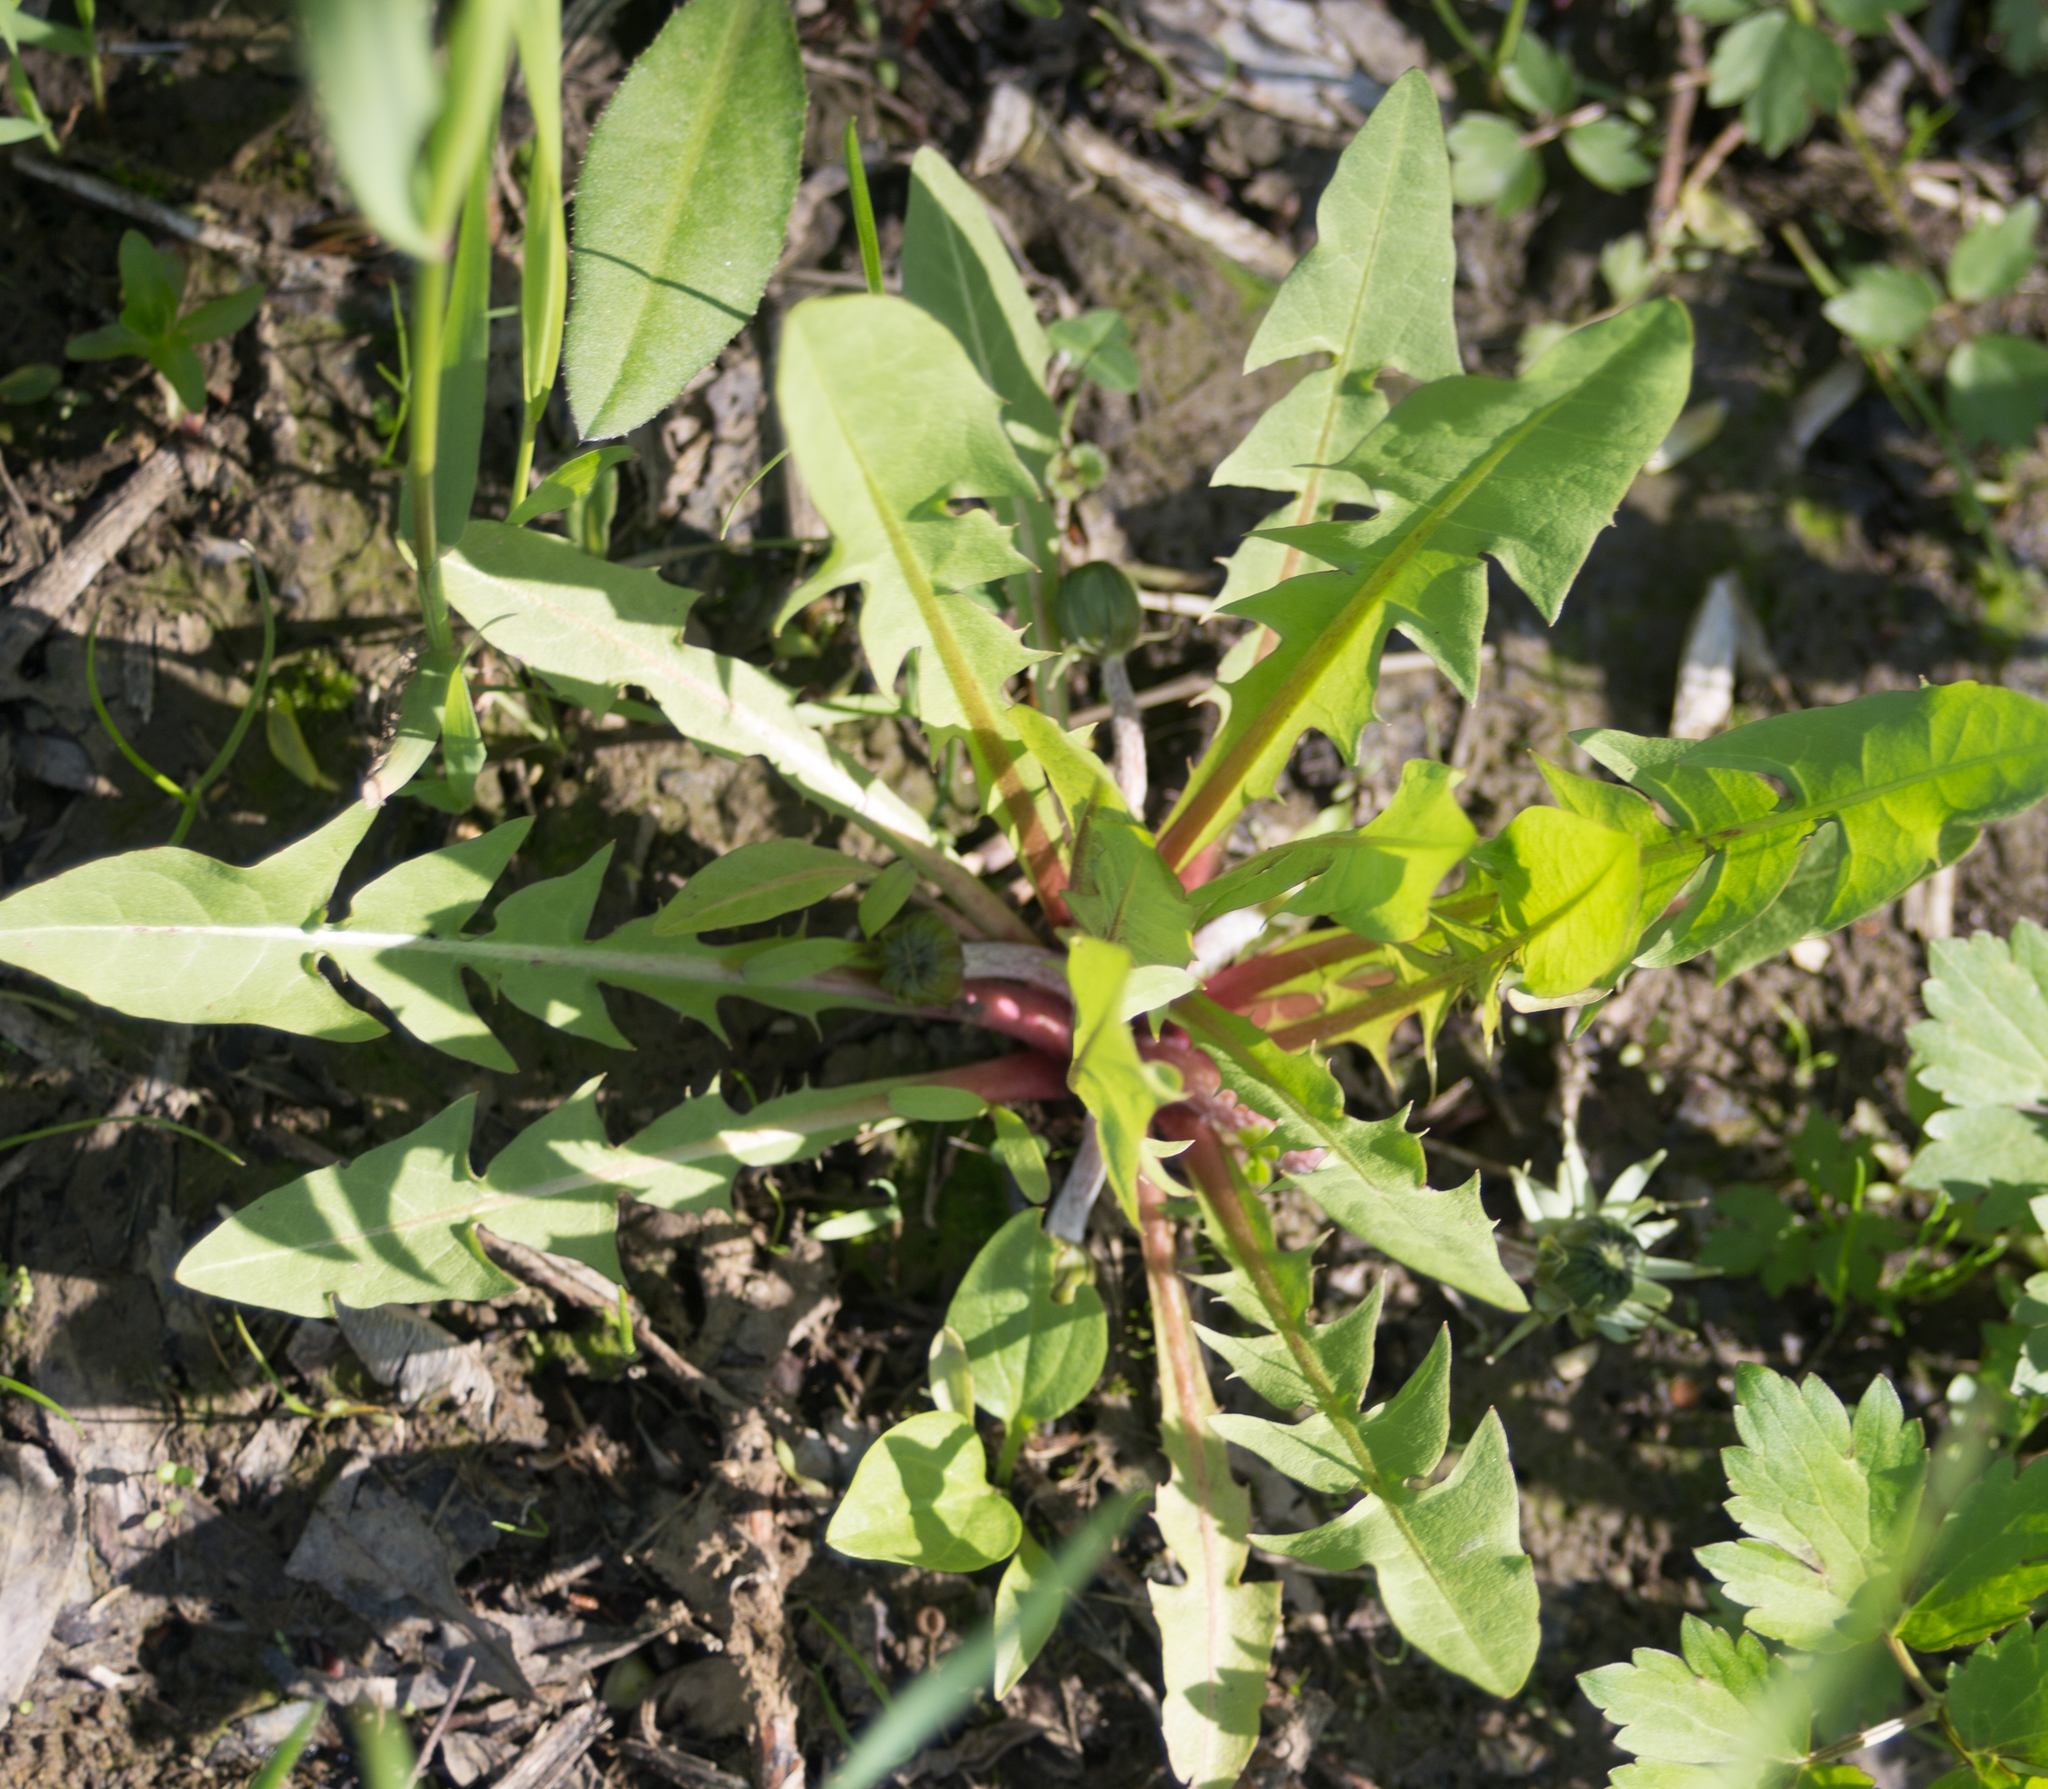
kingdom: Plantae
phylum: Tracheophyta
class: Magnoliopsida
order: Asterales
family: Asteraceae
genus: Taraxacum
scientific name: Taraxacum officinale
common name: Common dandelion
